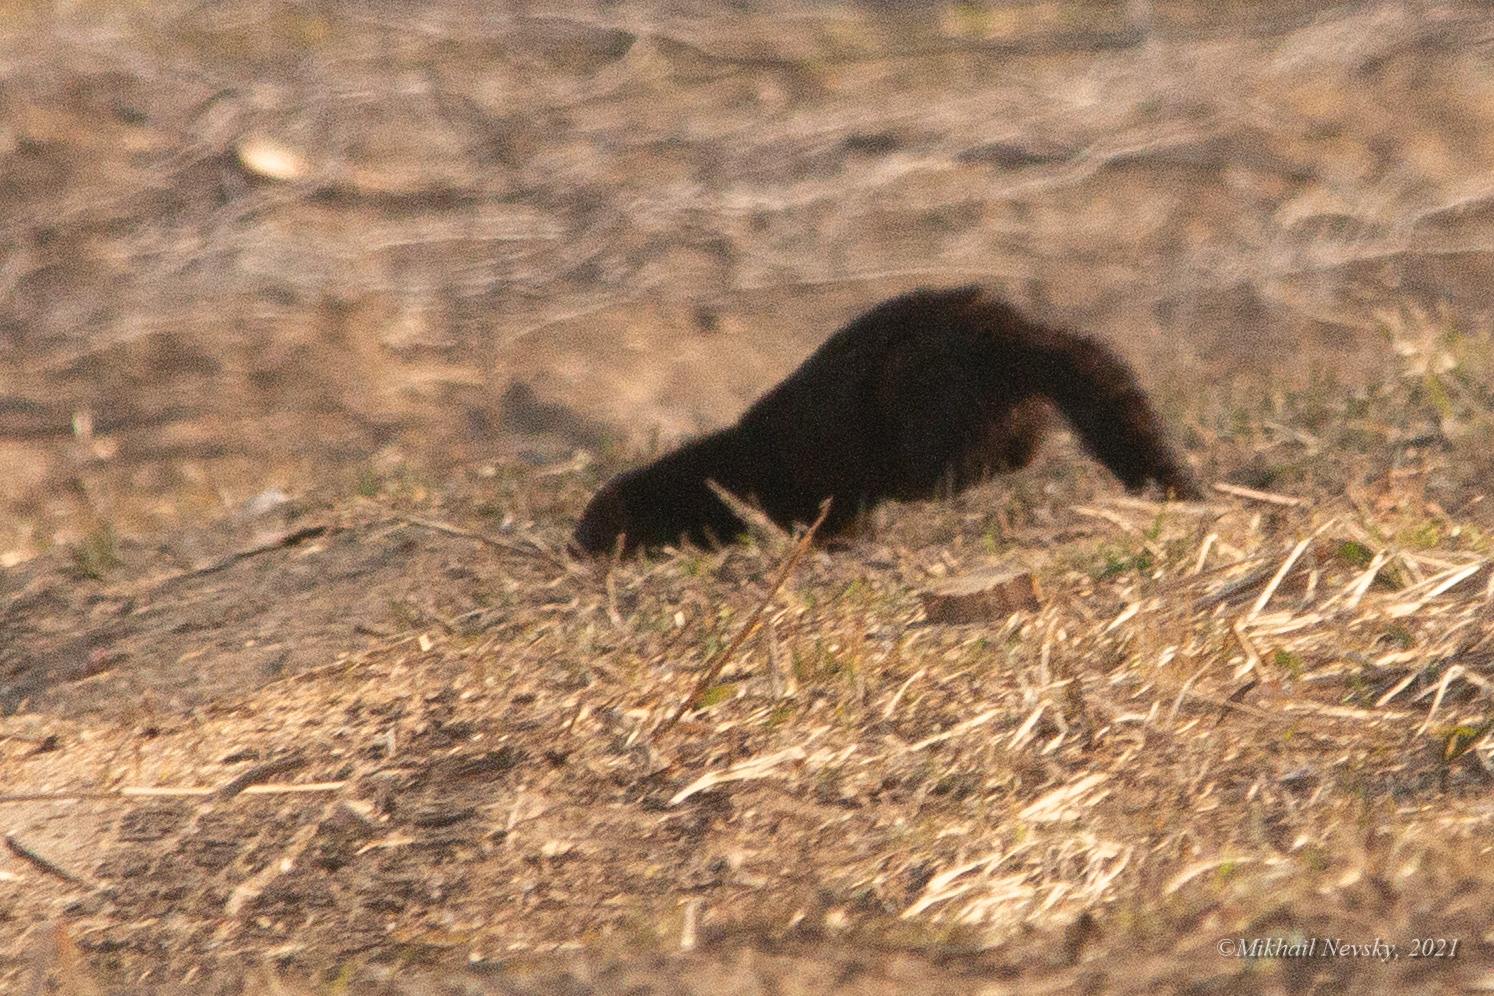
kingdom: Animalia
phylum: Chordata
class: Mammalia
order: Carnivora
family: Mustelidae
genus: Mustela
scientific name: Mustela
